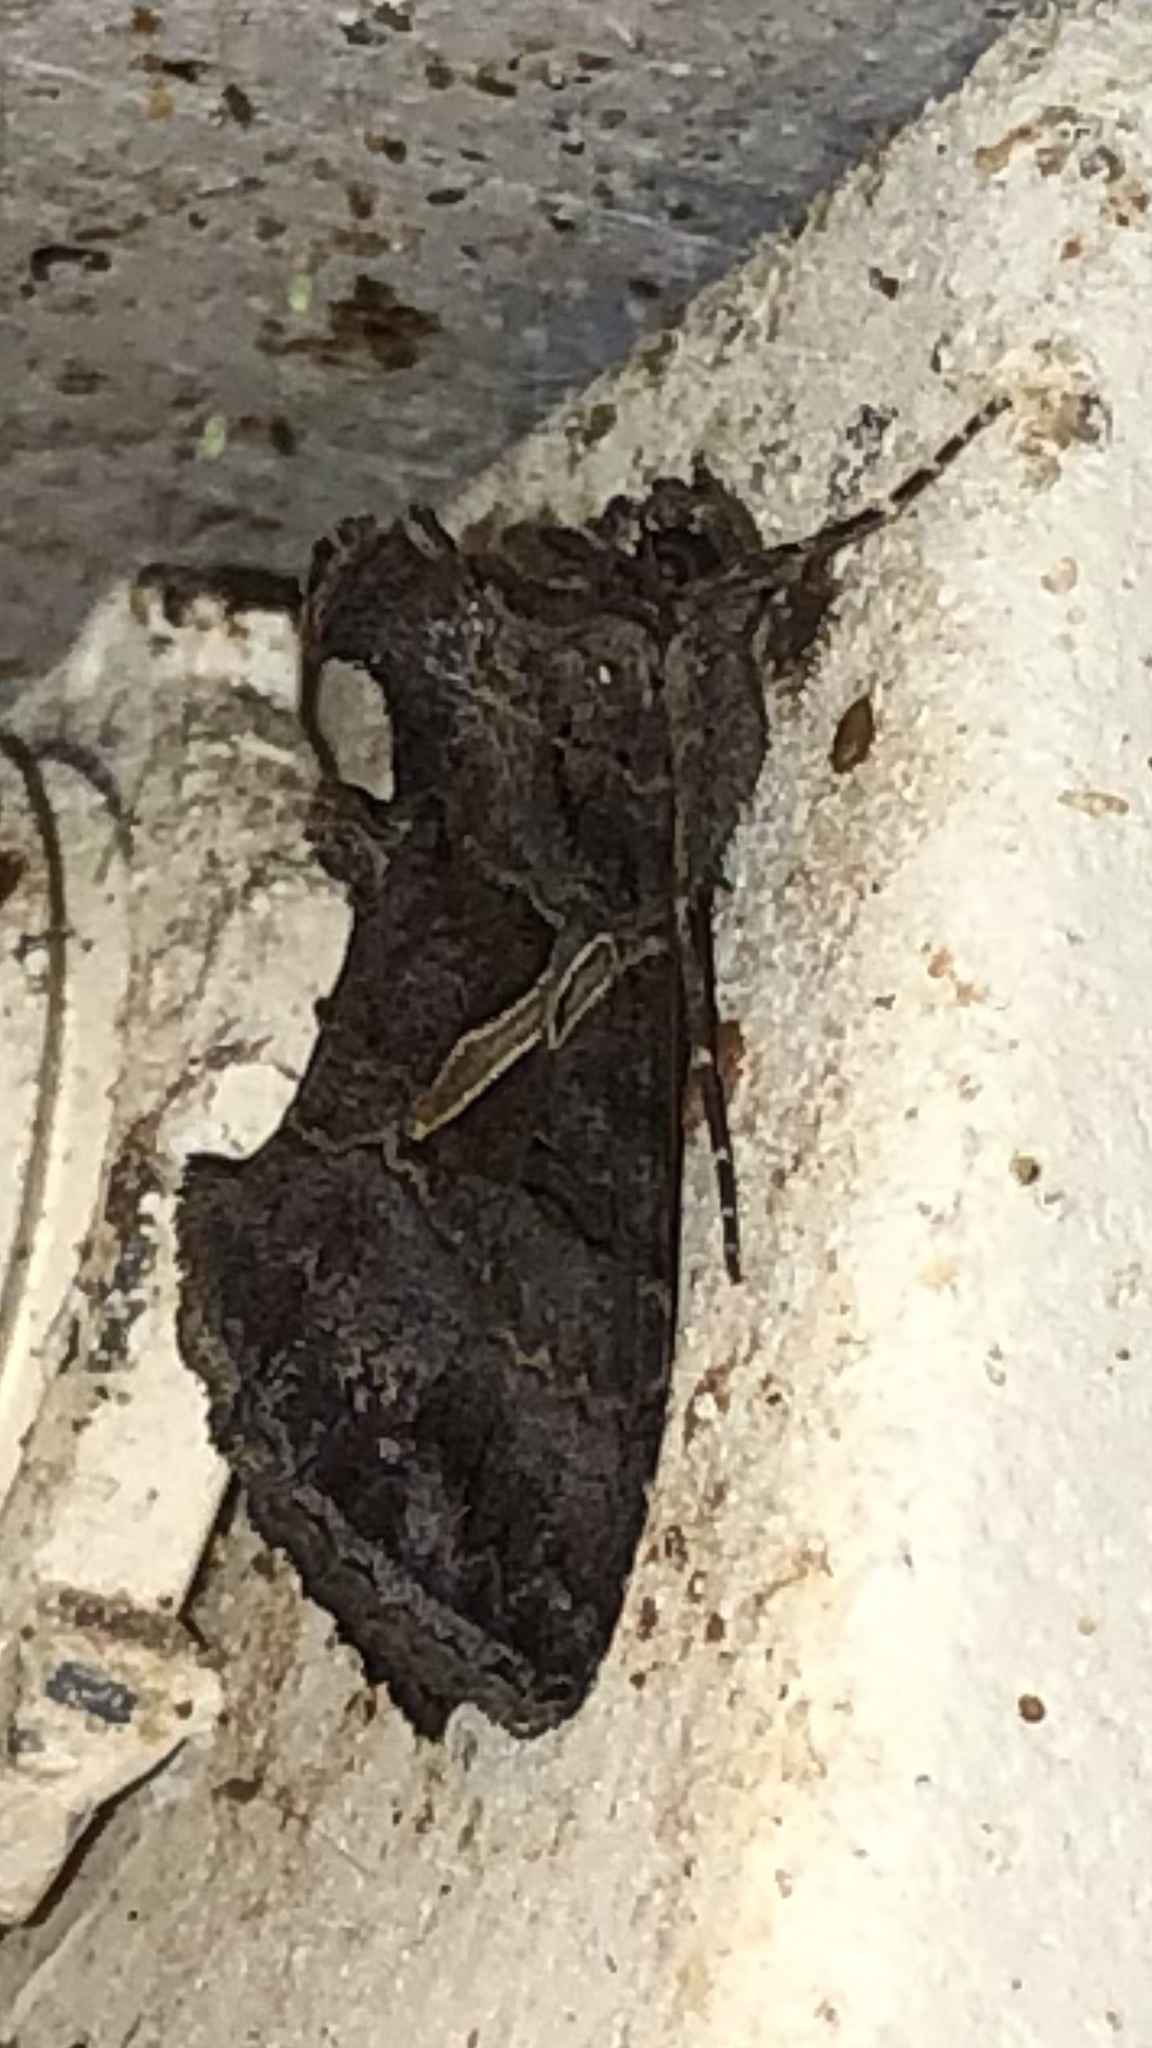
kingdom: Animalia
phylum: Arthropoda
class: Insecta
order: Lepidoptera
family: Noctuidae
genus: Ctenoplusia
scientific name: Ctenoplusia oxygramma
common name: Sharp-stigma looper moth
